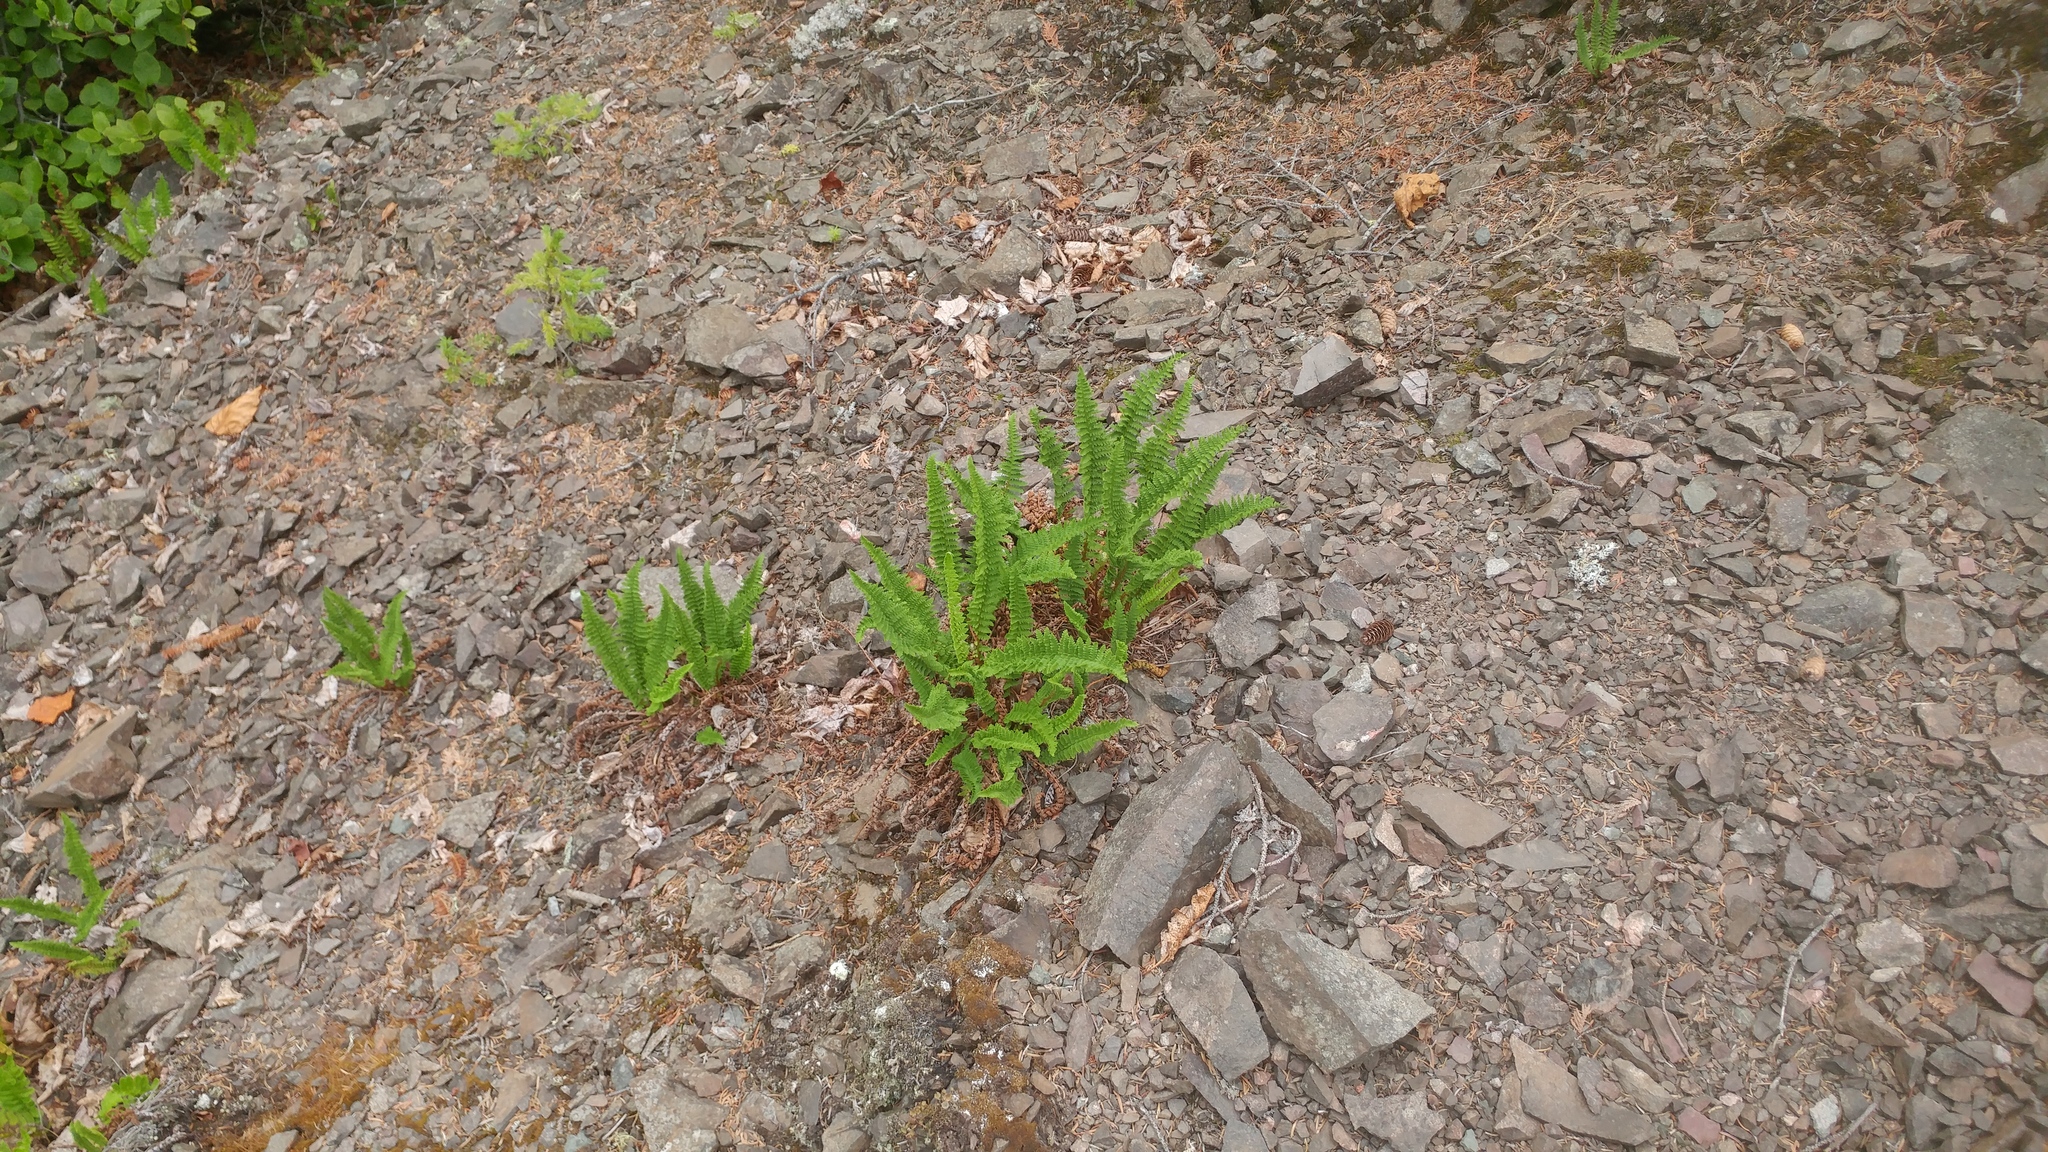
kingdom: Plantae
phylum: Tracheophyta
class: Polypodiopsida
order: Polypodiales
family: Dryopteridaceae
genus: Dryopteris
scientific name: Dryopteris fragrans
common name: Fragrant wood fern
